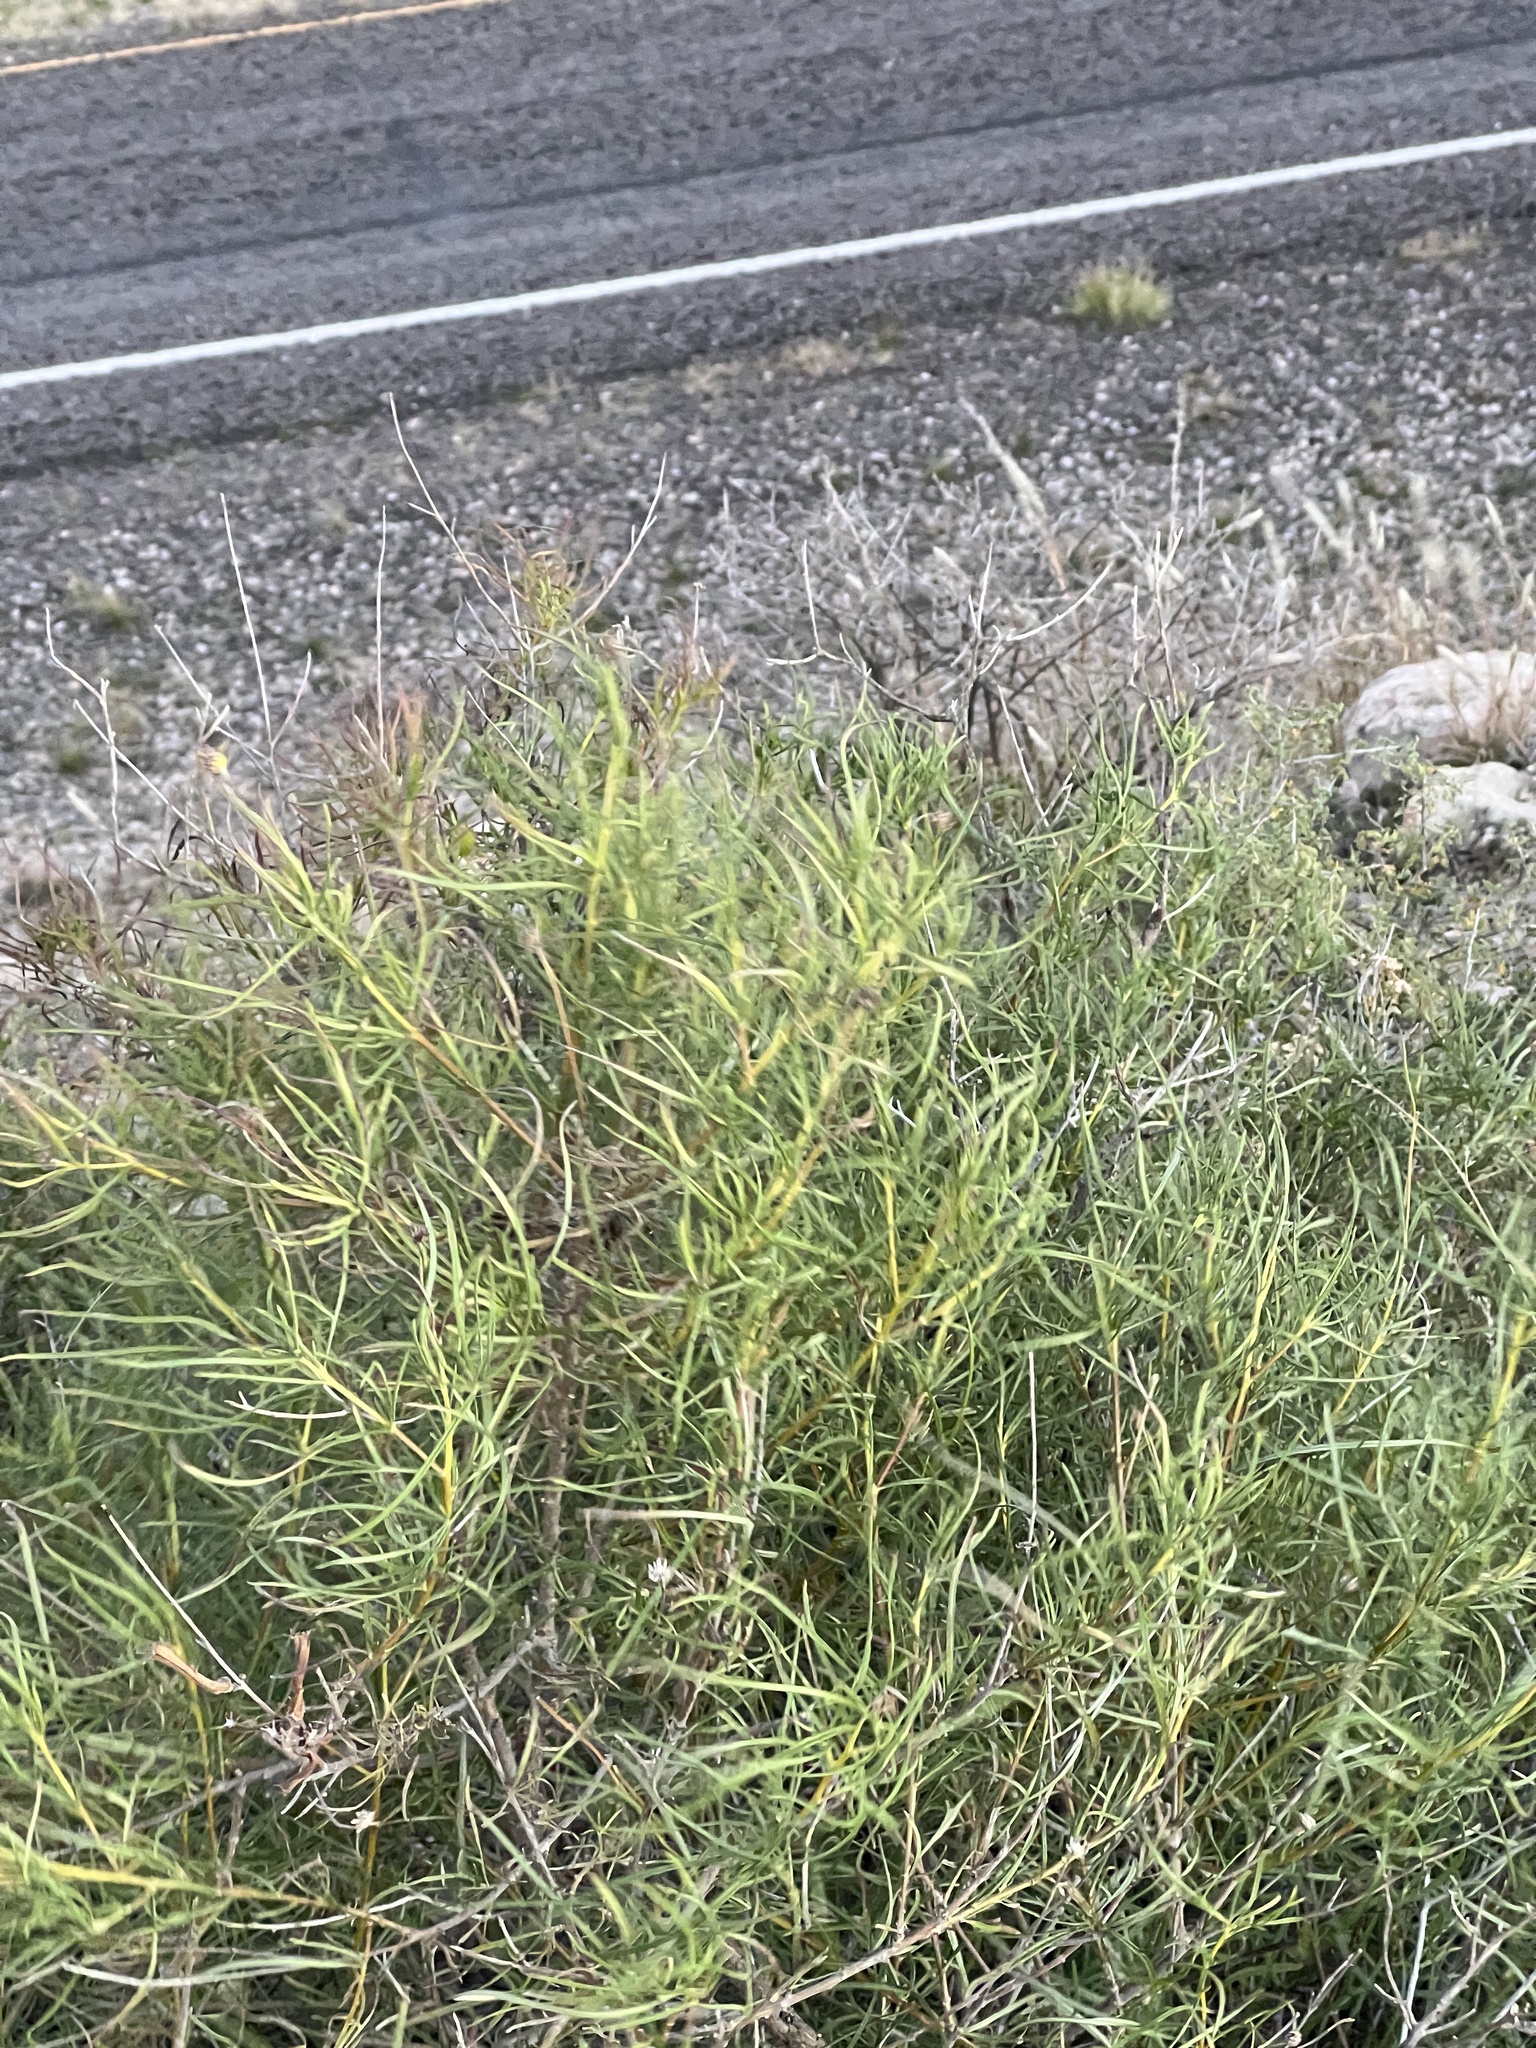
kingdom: Plantae
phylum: Tracheophyta
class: Magnoliopsida
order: Asterales
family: Asteraceae
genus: Sidneya
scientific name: Sidneya tenuifolia
